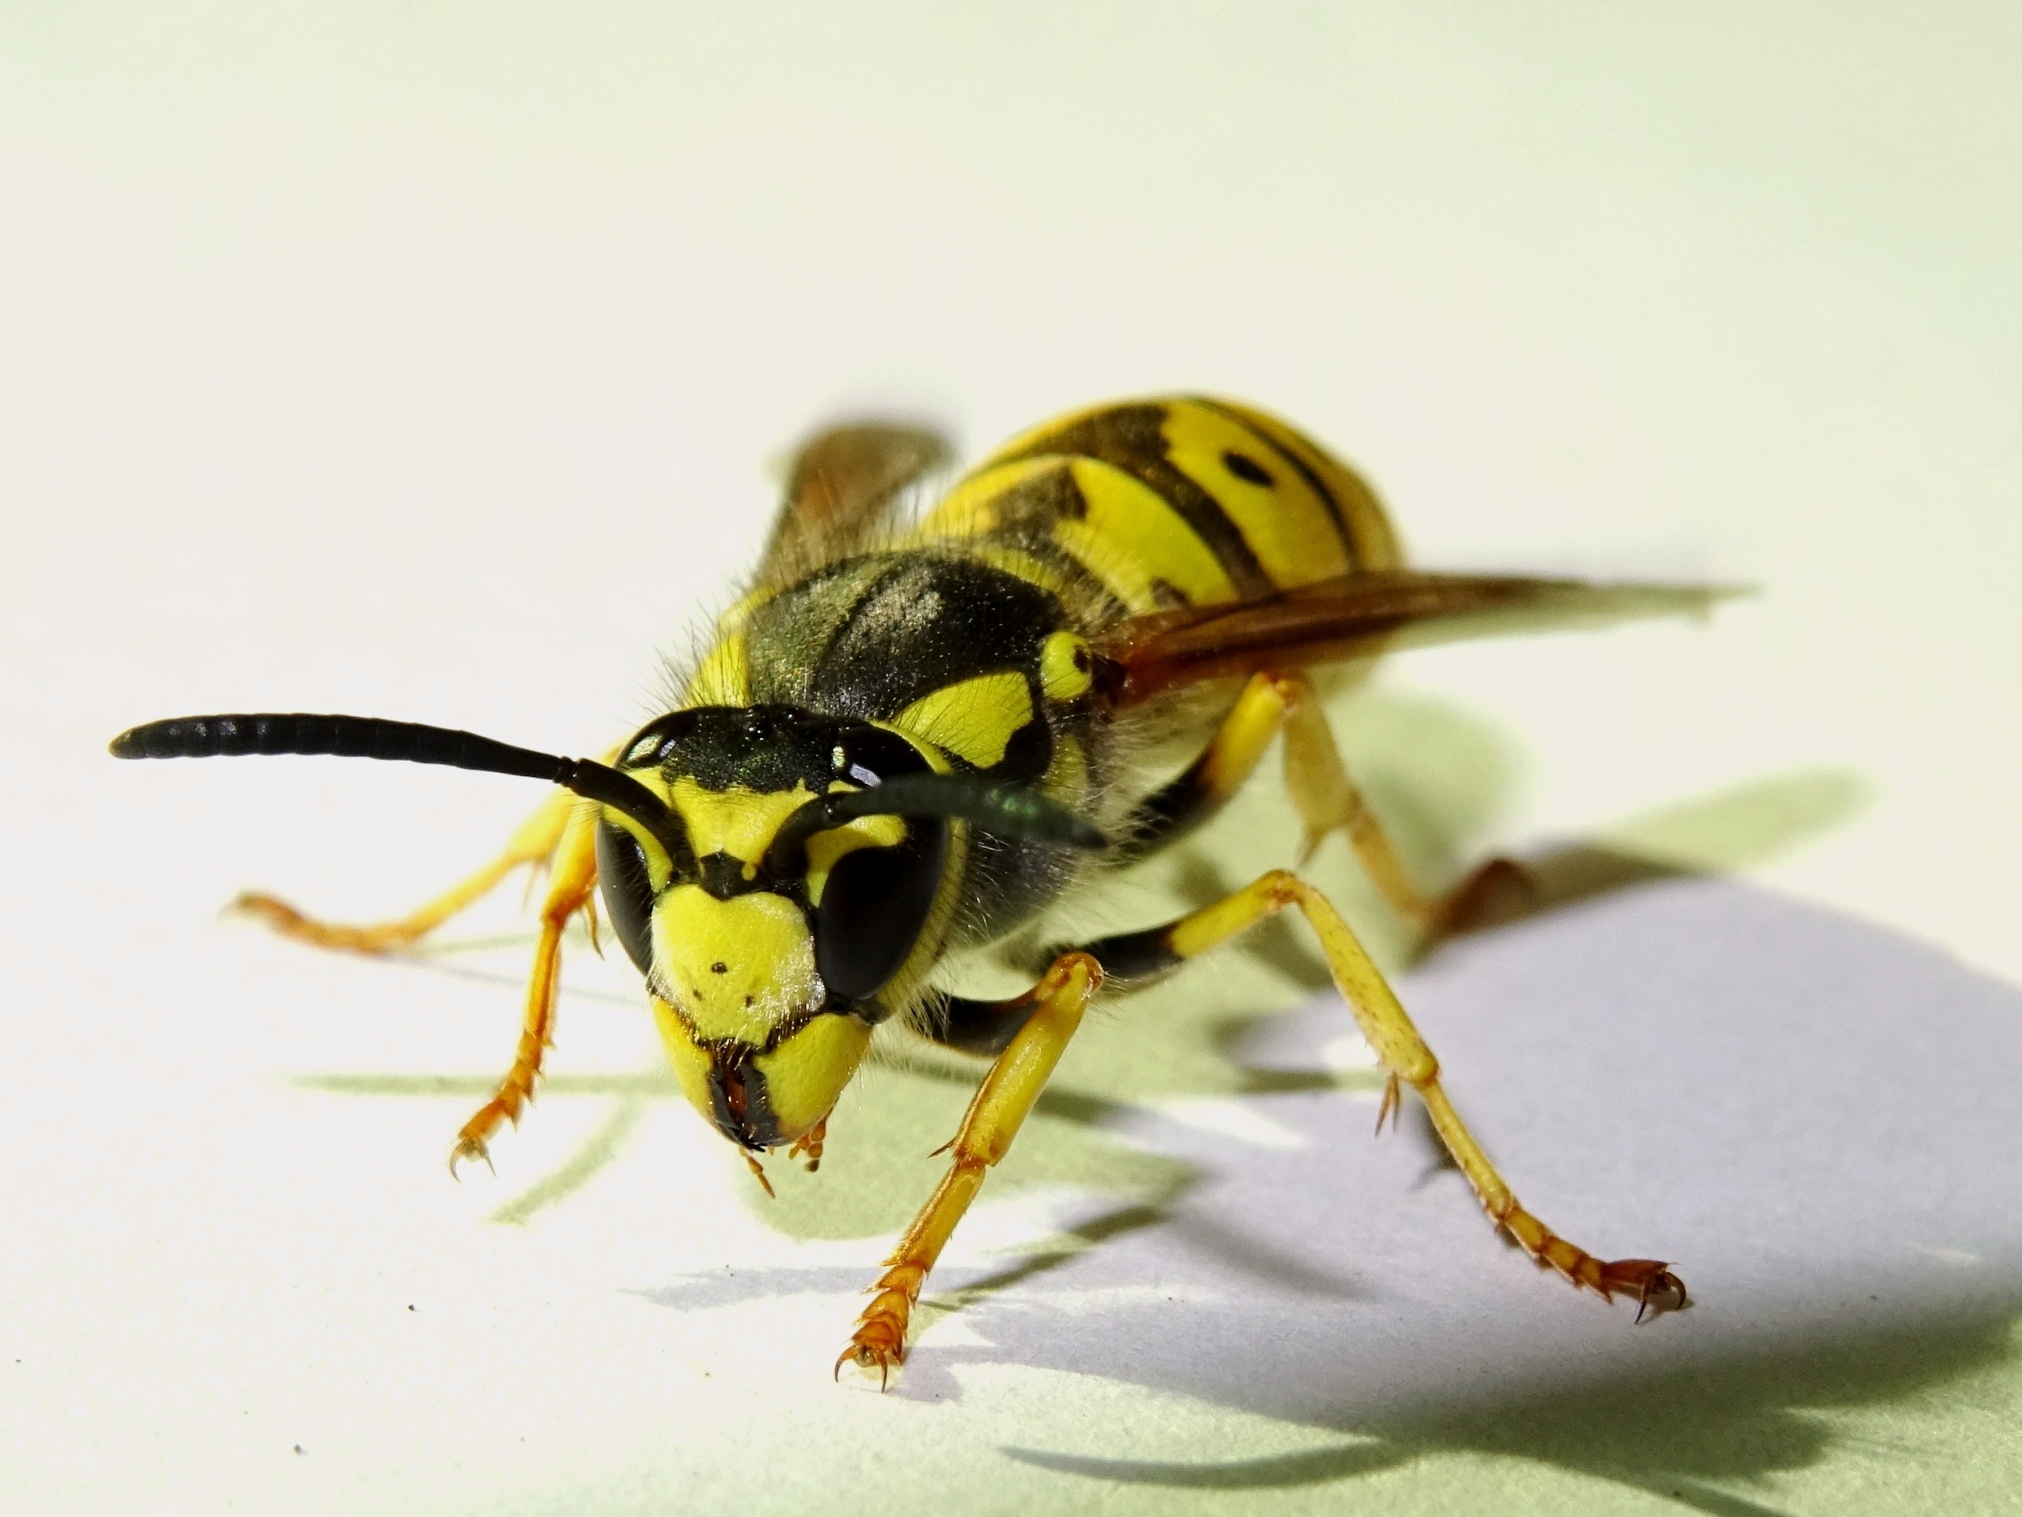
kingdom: Animalia
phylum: Arthropoda
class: Insecta
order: Hymenoptera
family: Vespidae
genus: Vespula
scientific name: Vespula germanica
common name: German wasp
